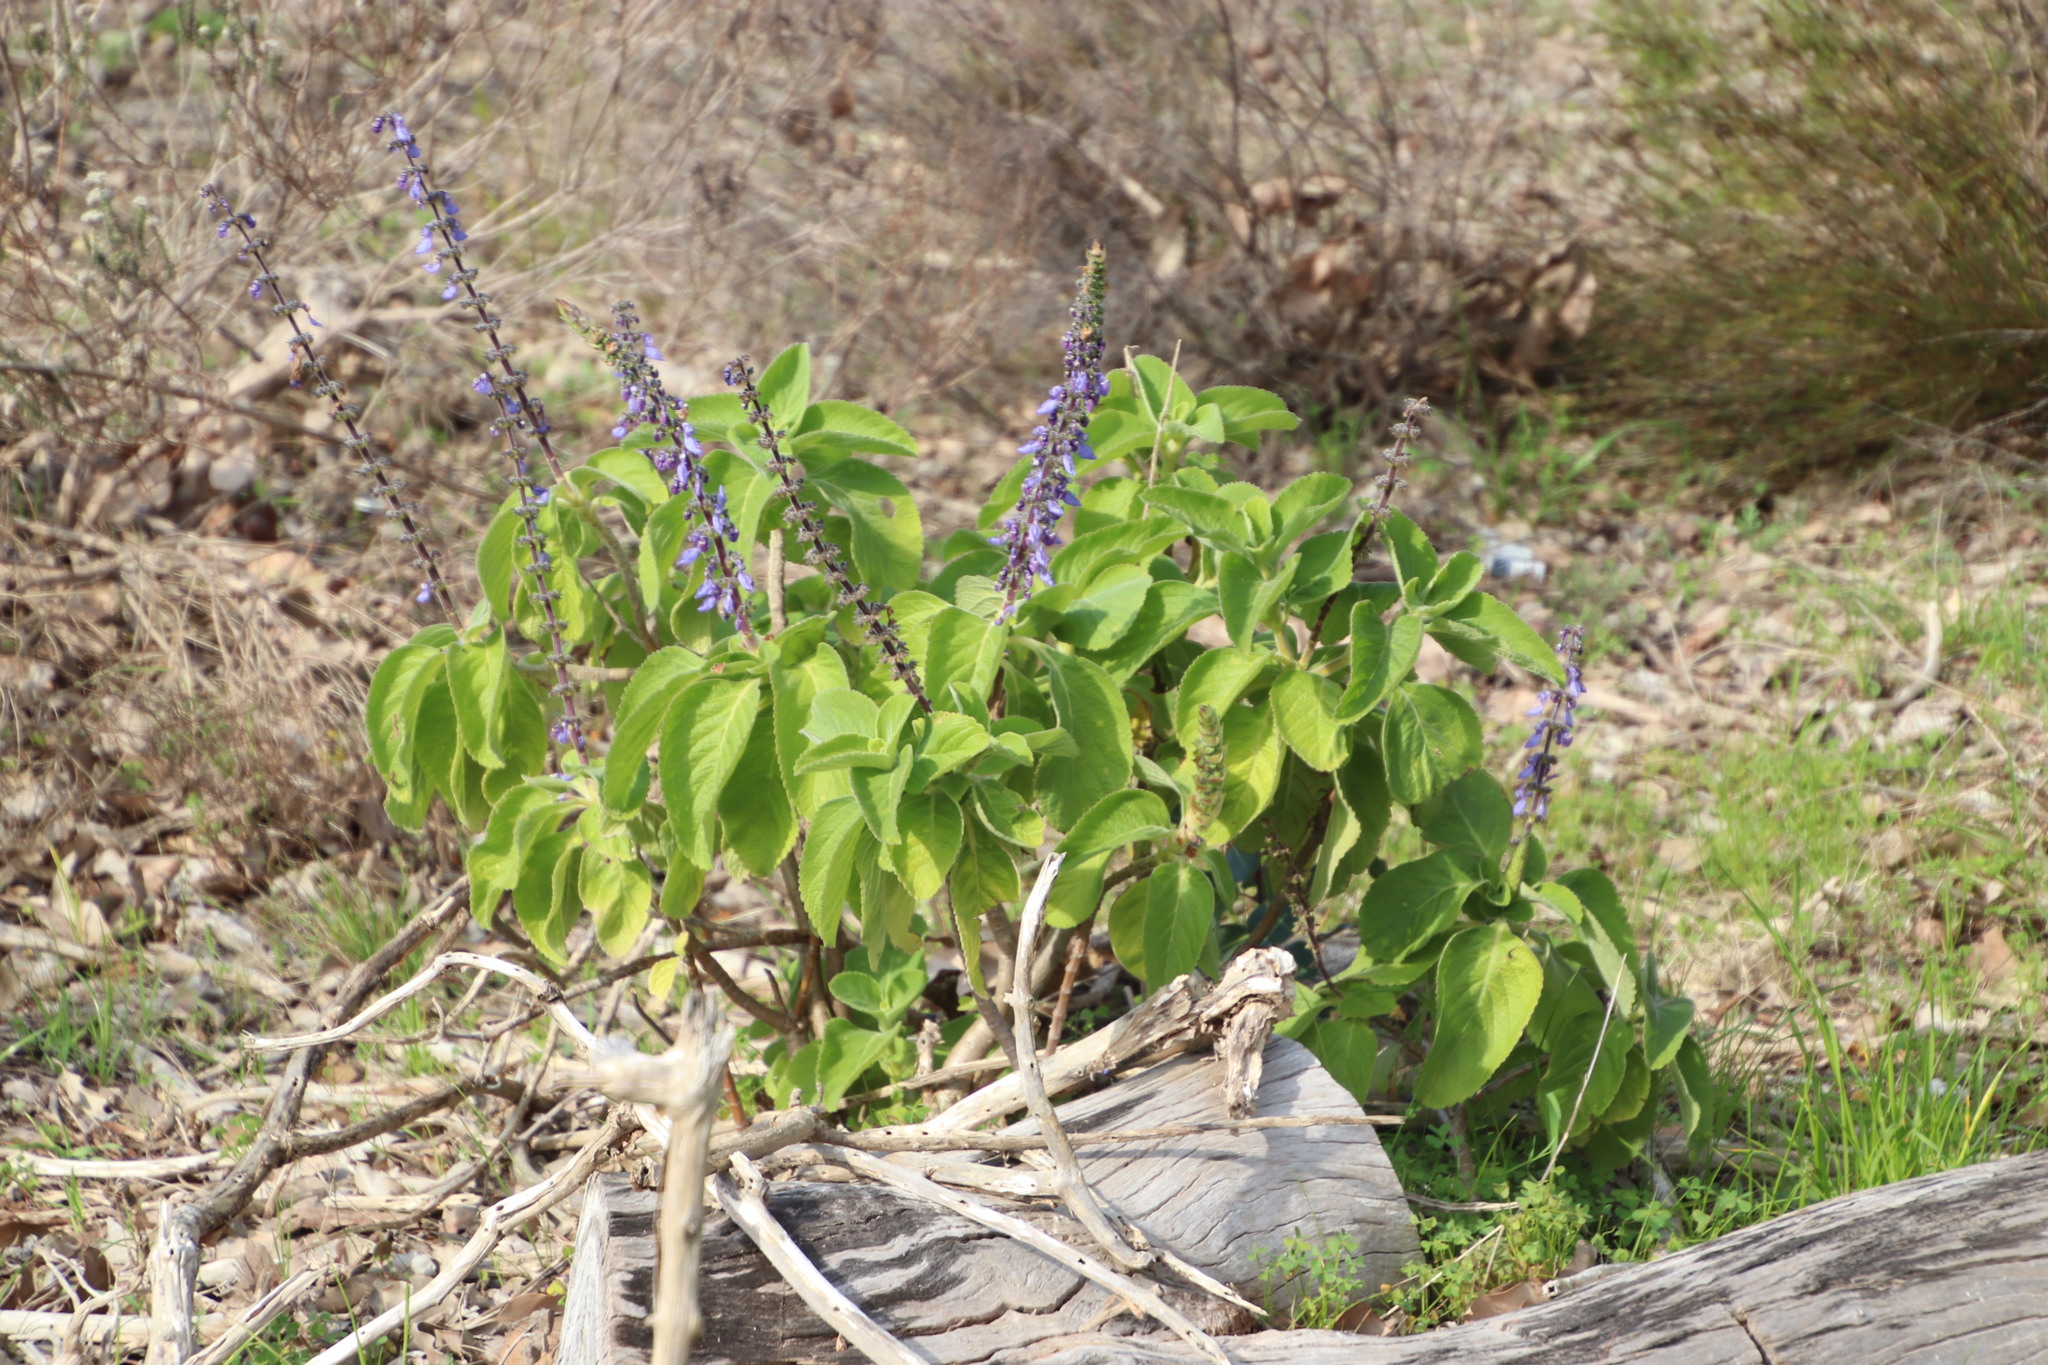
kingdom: Plantae
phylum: Tracheophyta
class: Magnoliopsida
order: Lamiales
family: Lamiaceae
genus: Coleus
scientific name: Coleus barbatus
